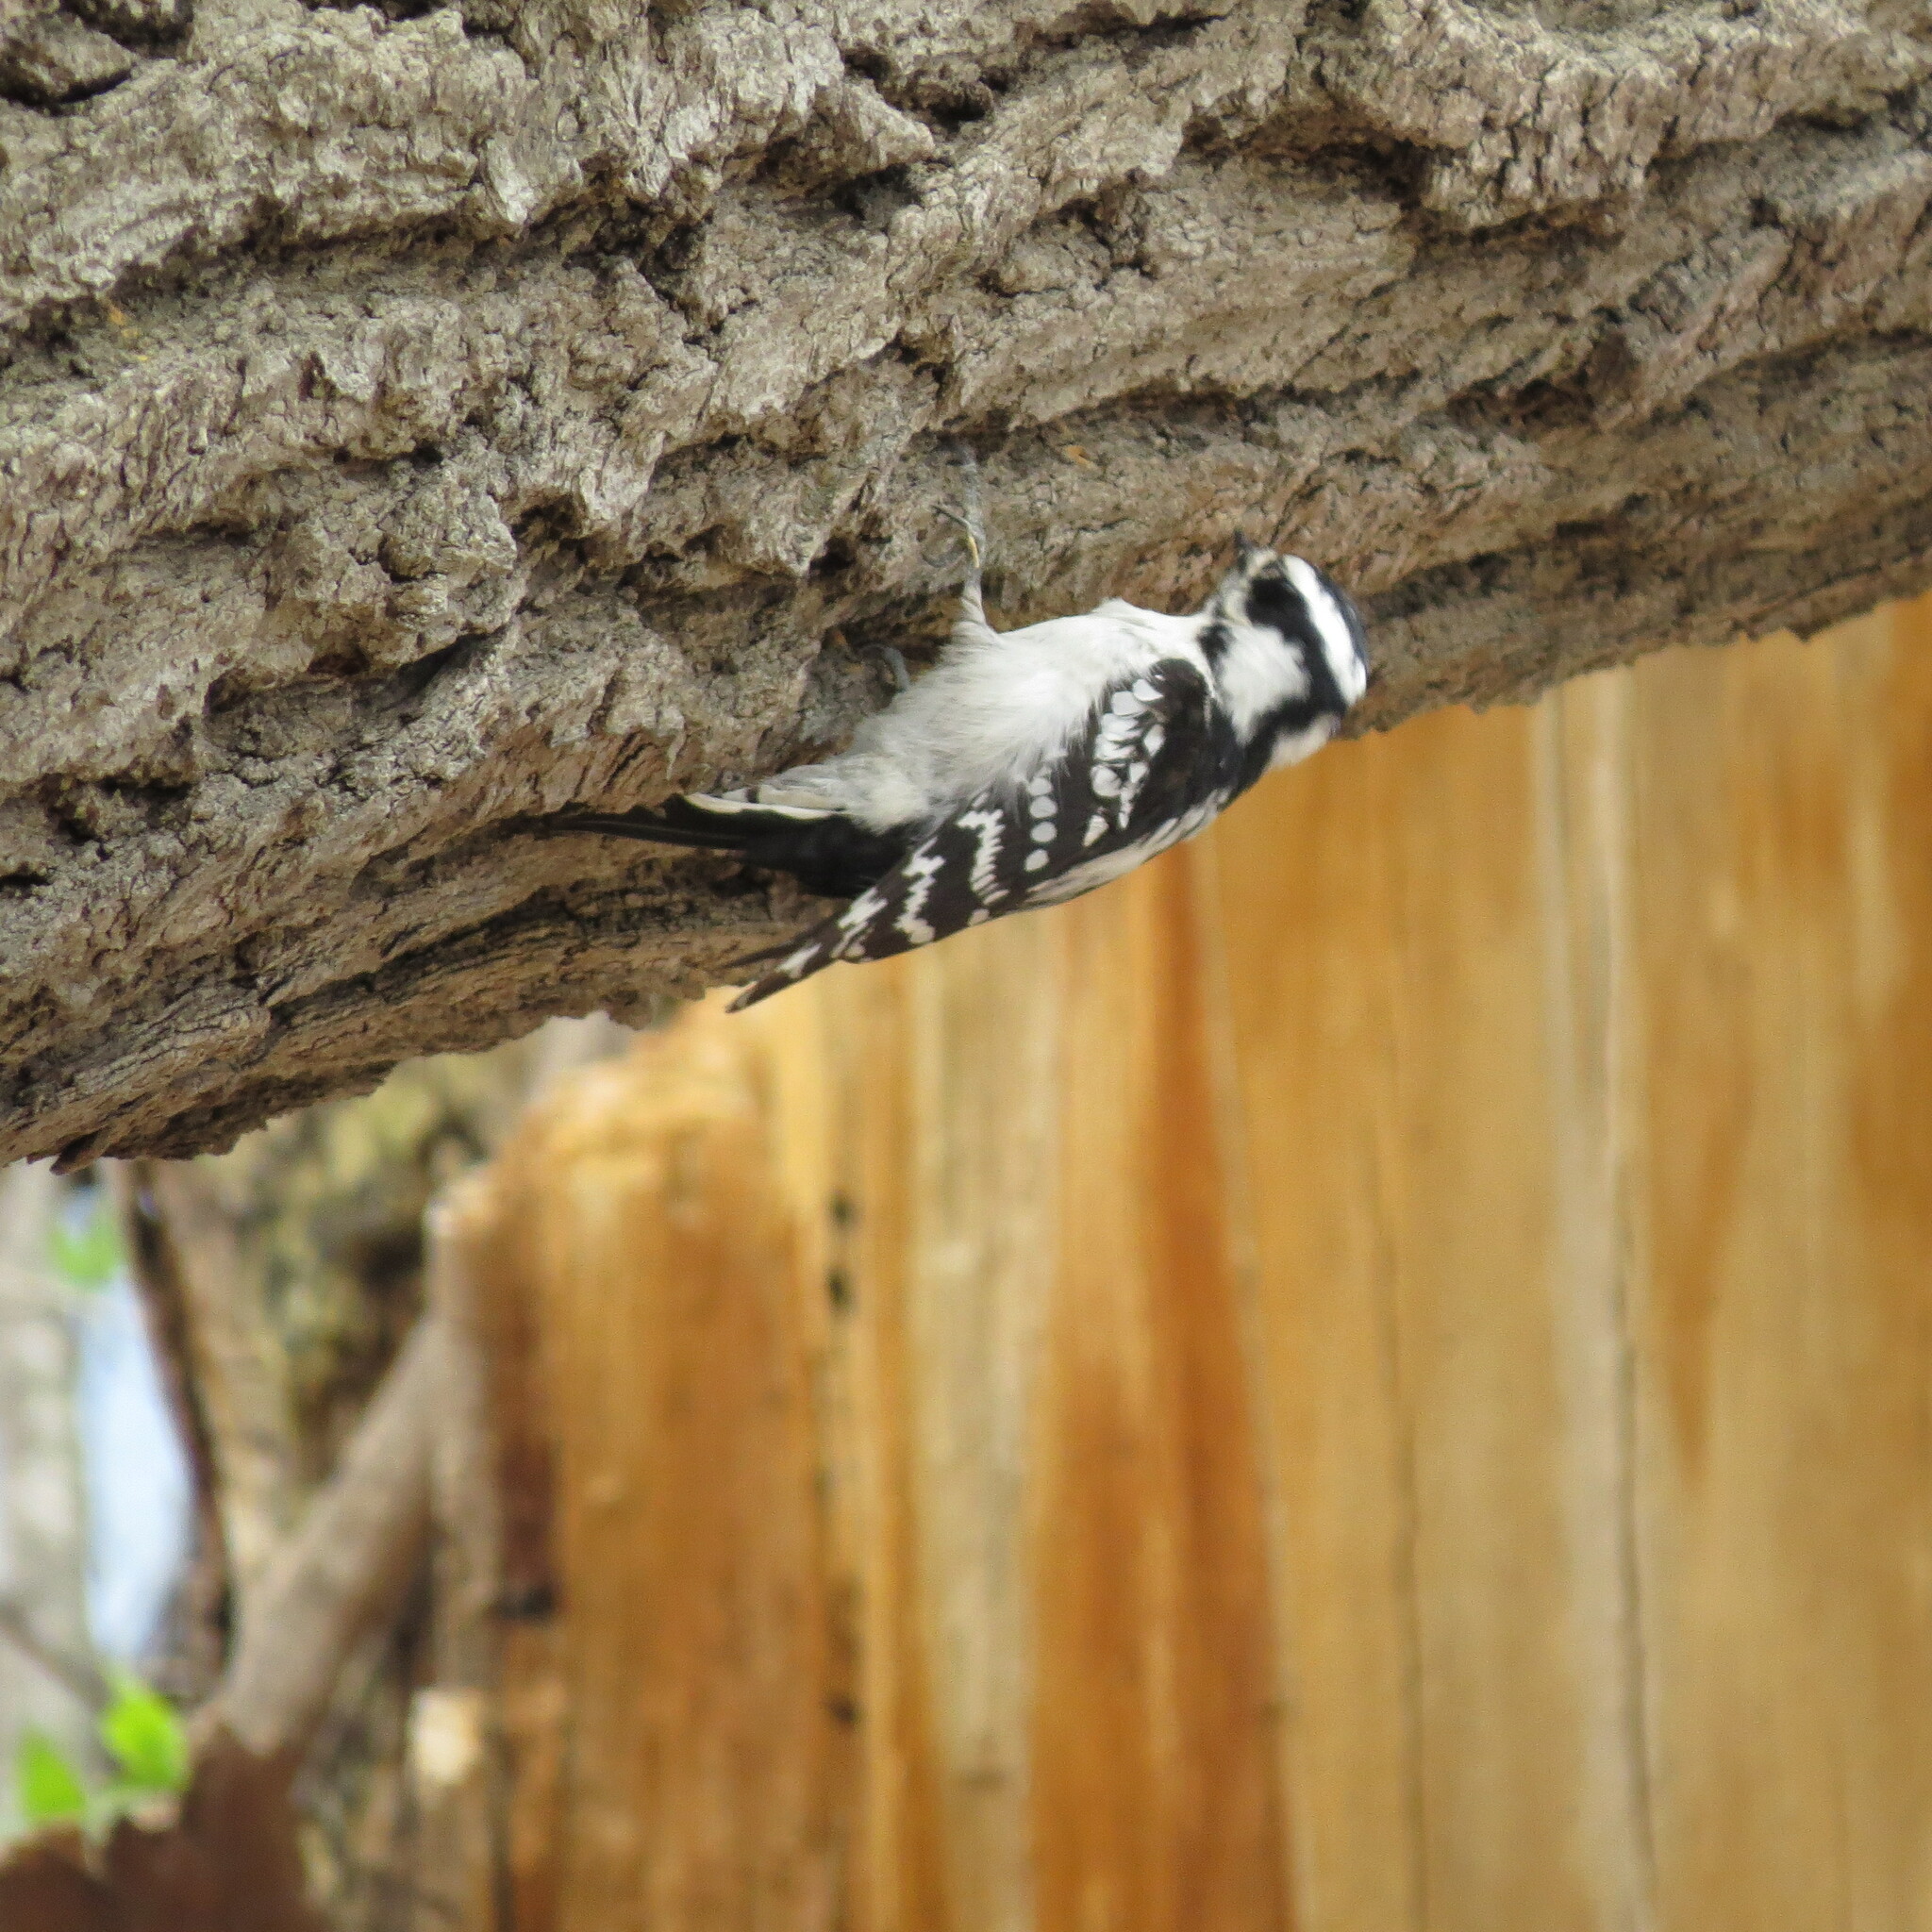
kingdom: Animalia
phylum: Chordata
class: Aves
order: Piciformes
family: Picidae
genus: Dryobates
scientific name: Dryobates pubescens
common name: Downy woodpecker
